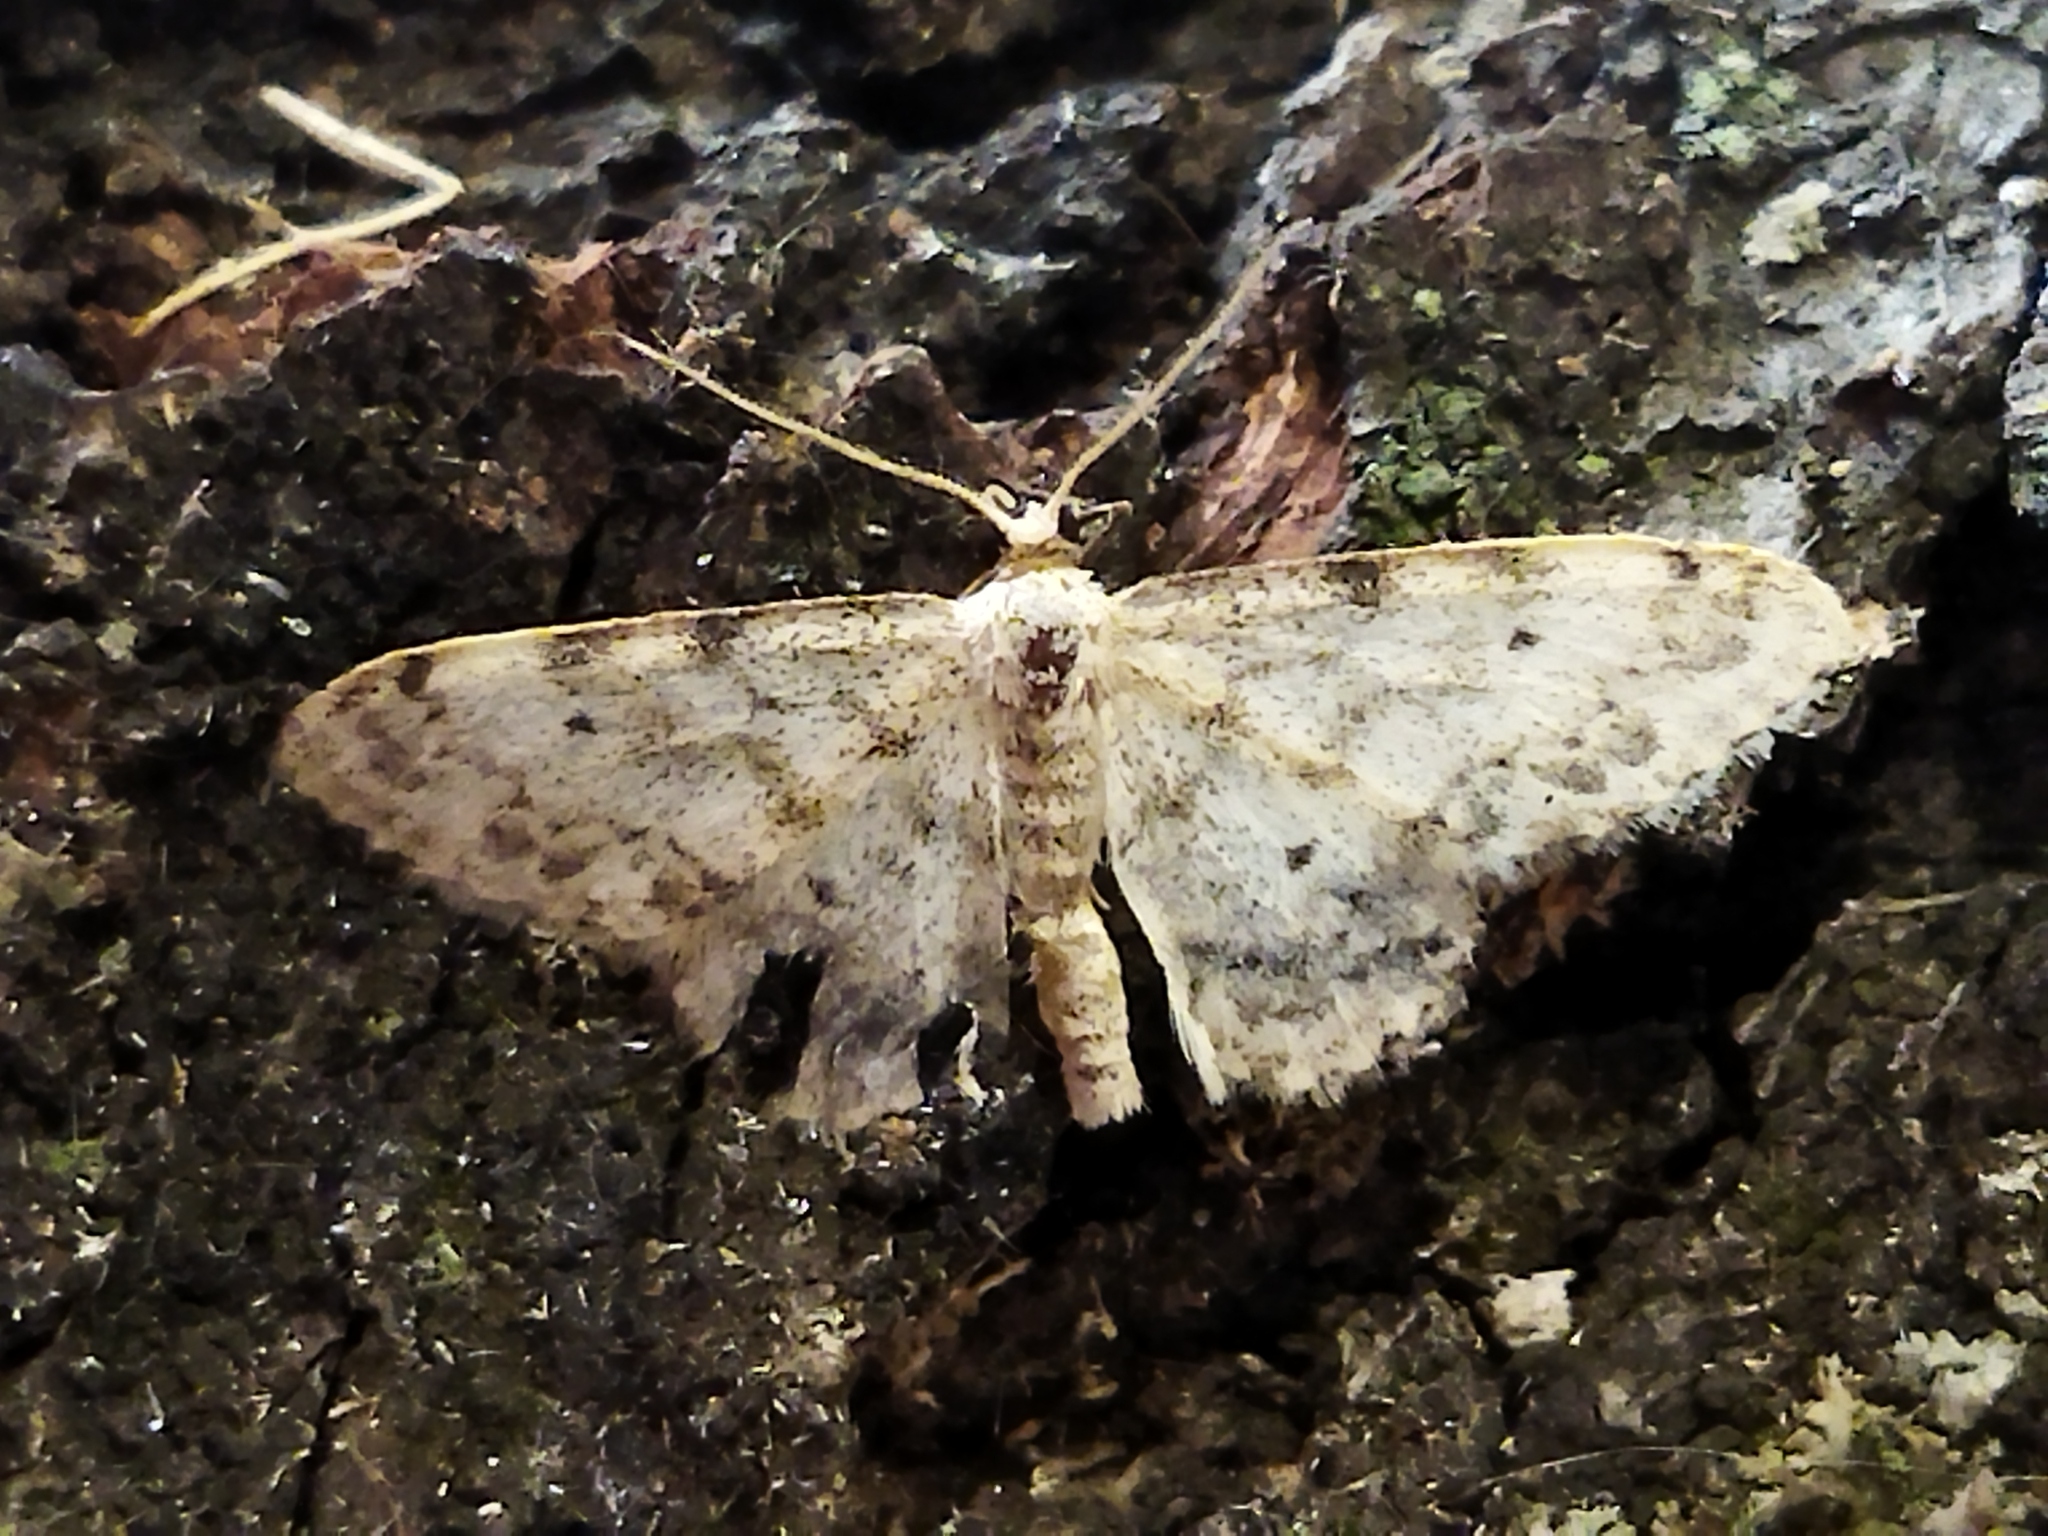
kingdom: Animalia
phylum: Arthropoda
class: Insecta
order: Lepidoptera
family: Geometridae
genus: Idaea
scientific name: Idaea camparia
